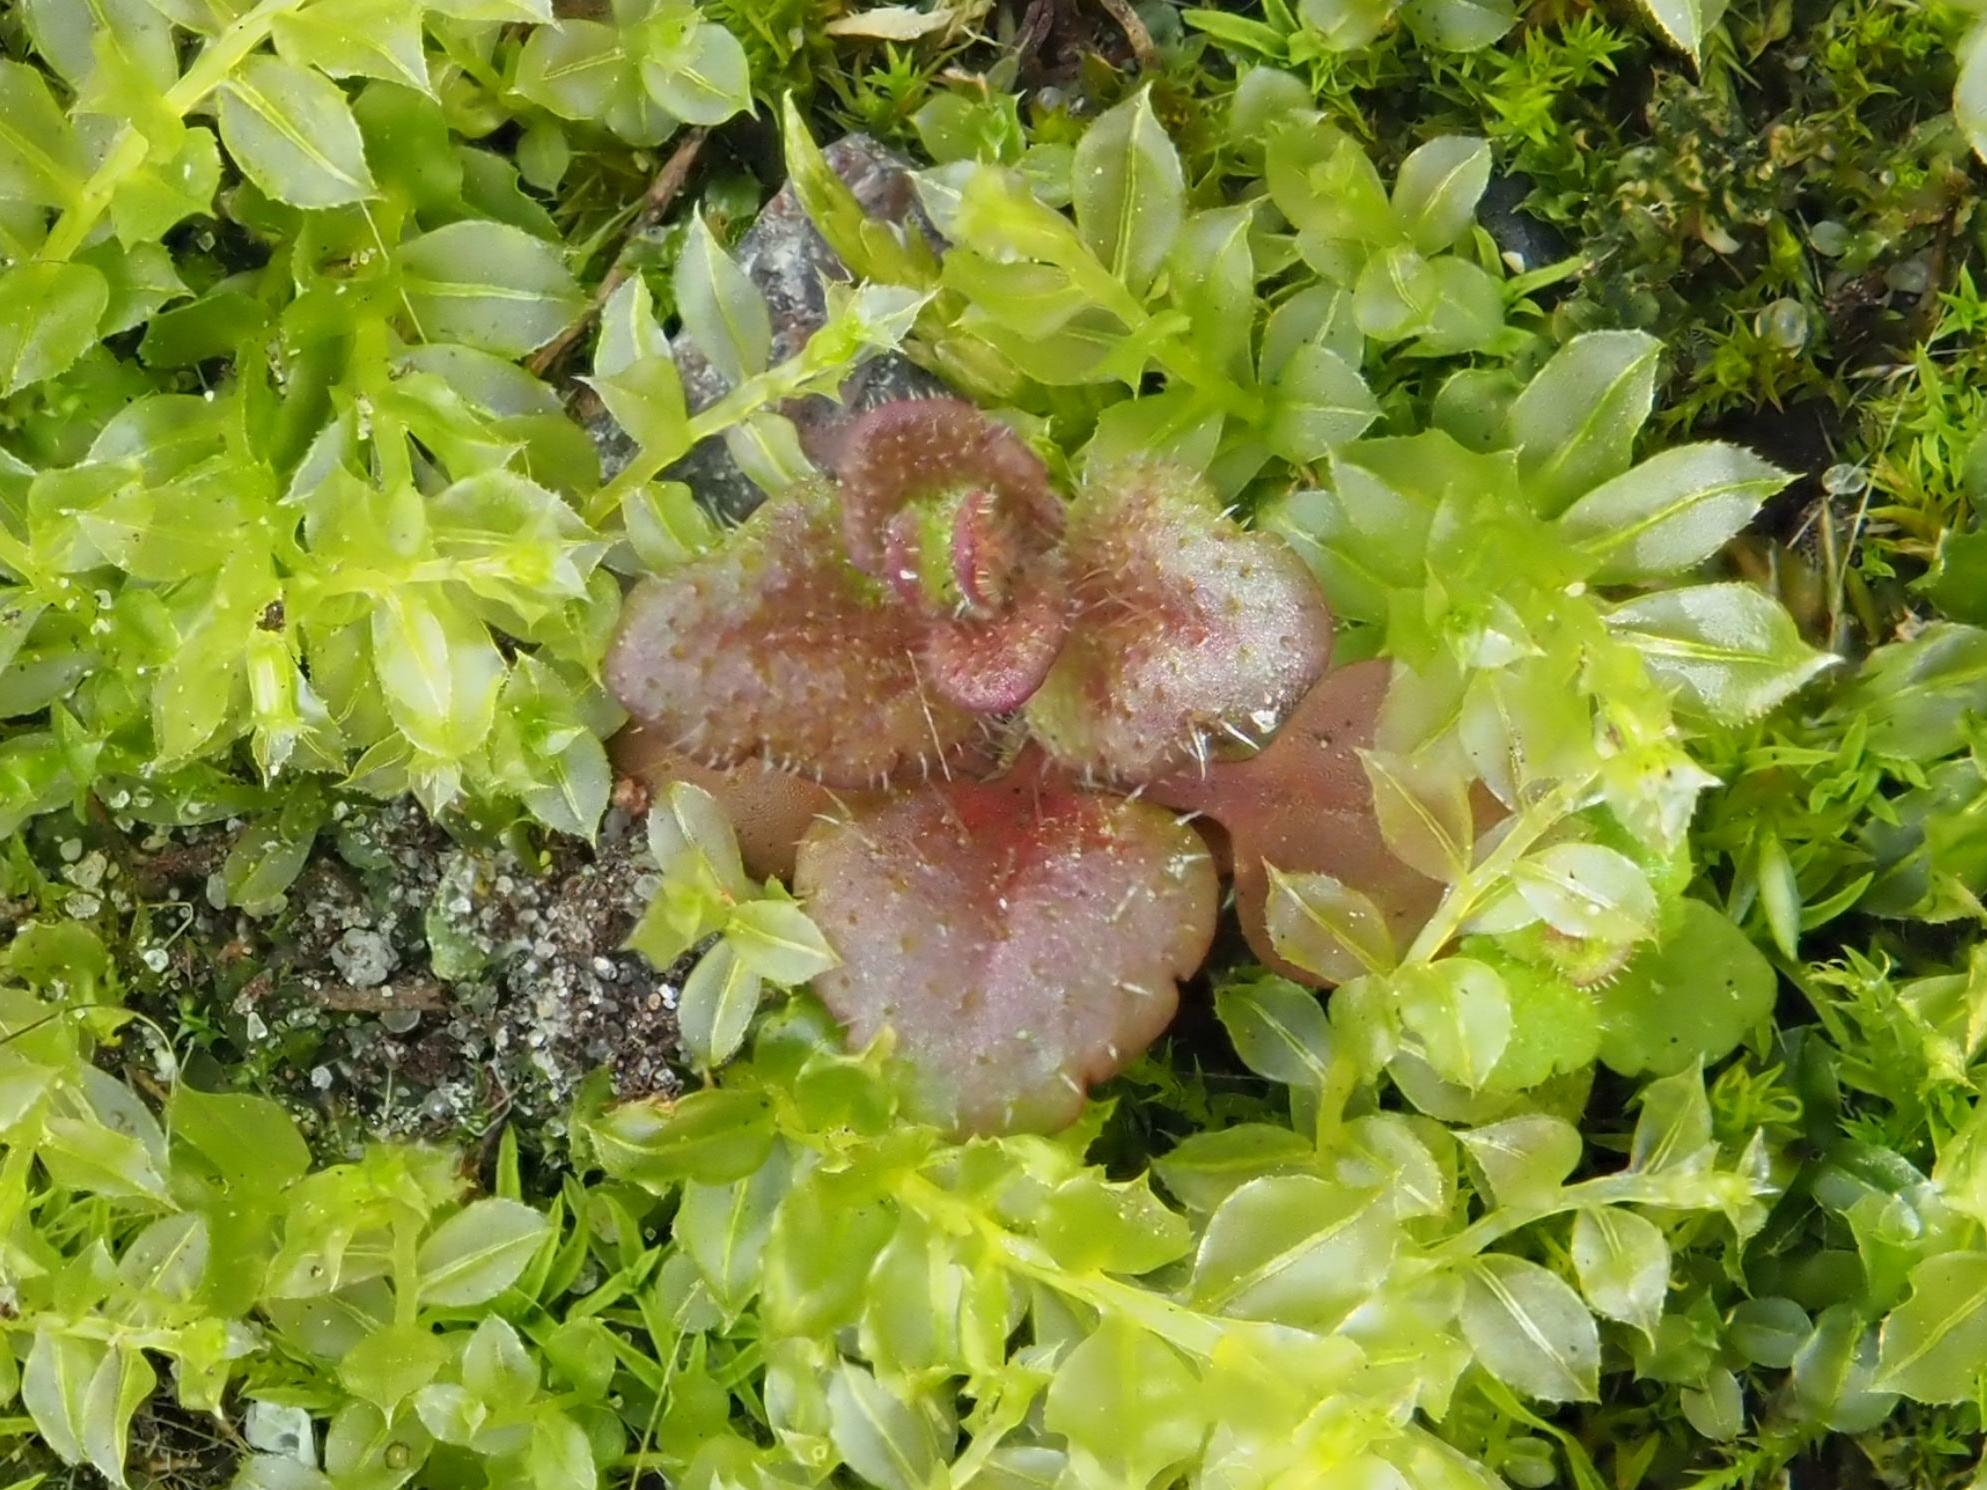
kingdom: Plantae
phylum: Tracheophyta
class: Magnoliopsida
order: Lamiales
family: Plantaginaceae
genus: Veronica
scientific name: Veronica arvensis
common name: Corn speedwell
